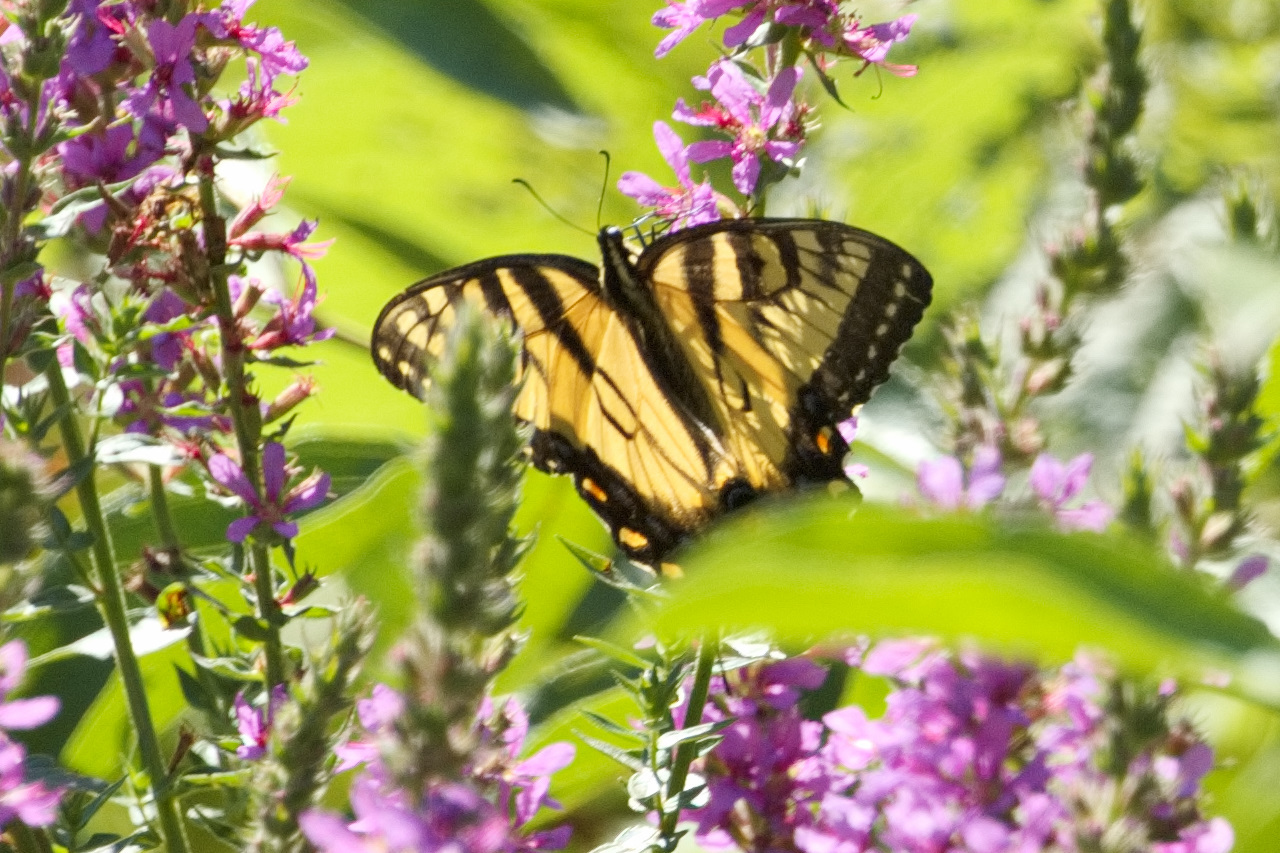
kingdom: Animalia
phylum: Arthropoda
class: Insecta
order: Lepidoptera
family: Papilionidae
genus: Papilio
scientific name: Papilio glaucus
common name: Tiger swallowtail
